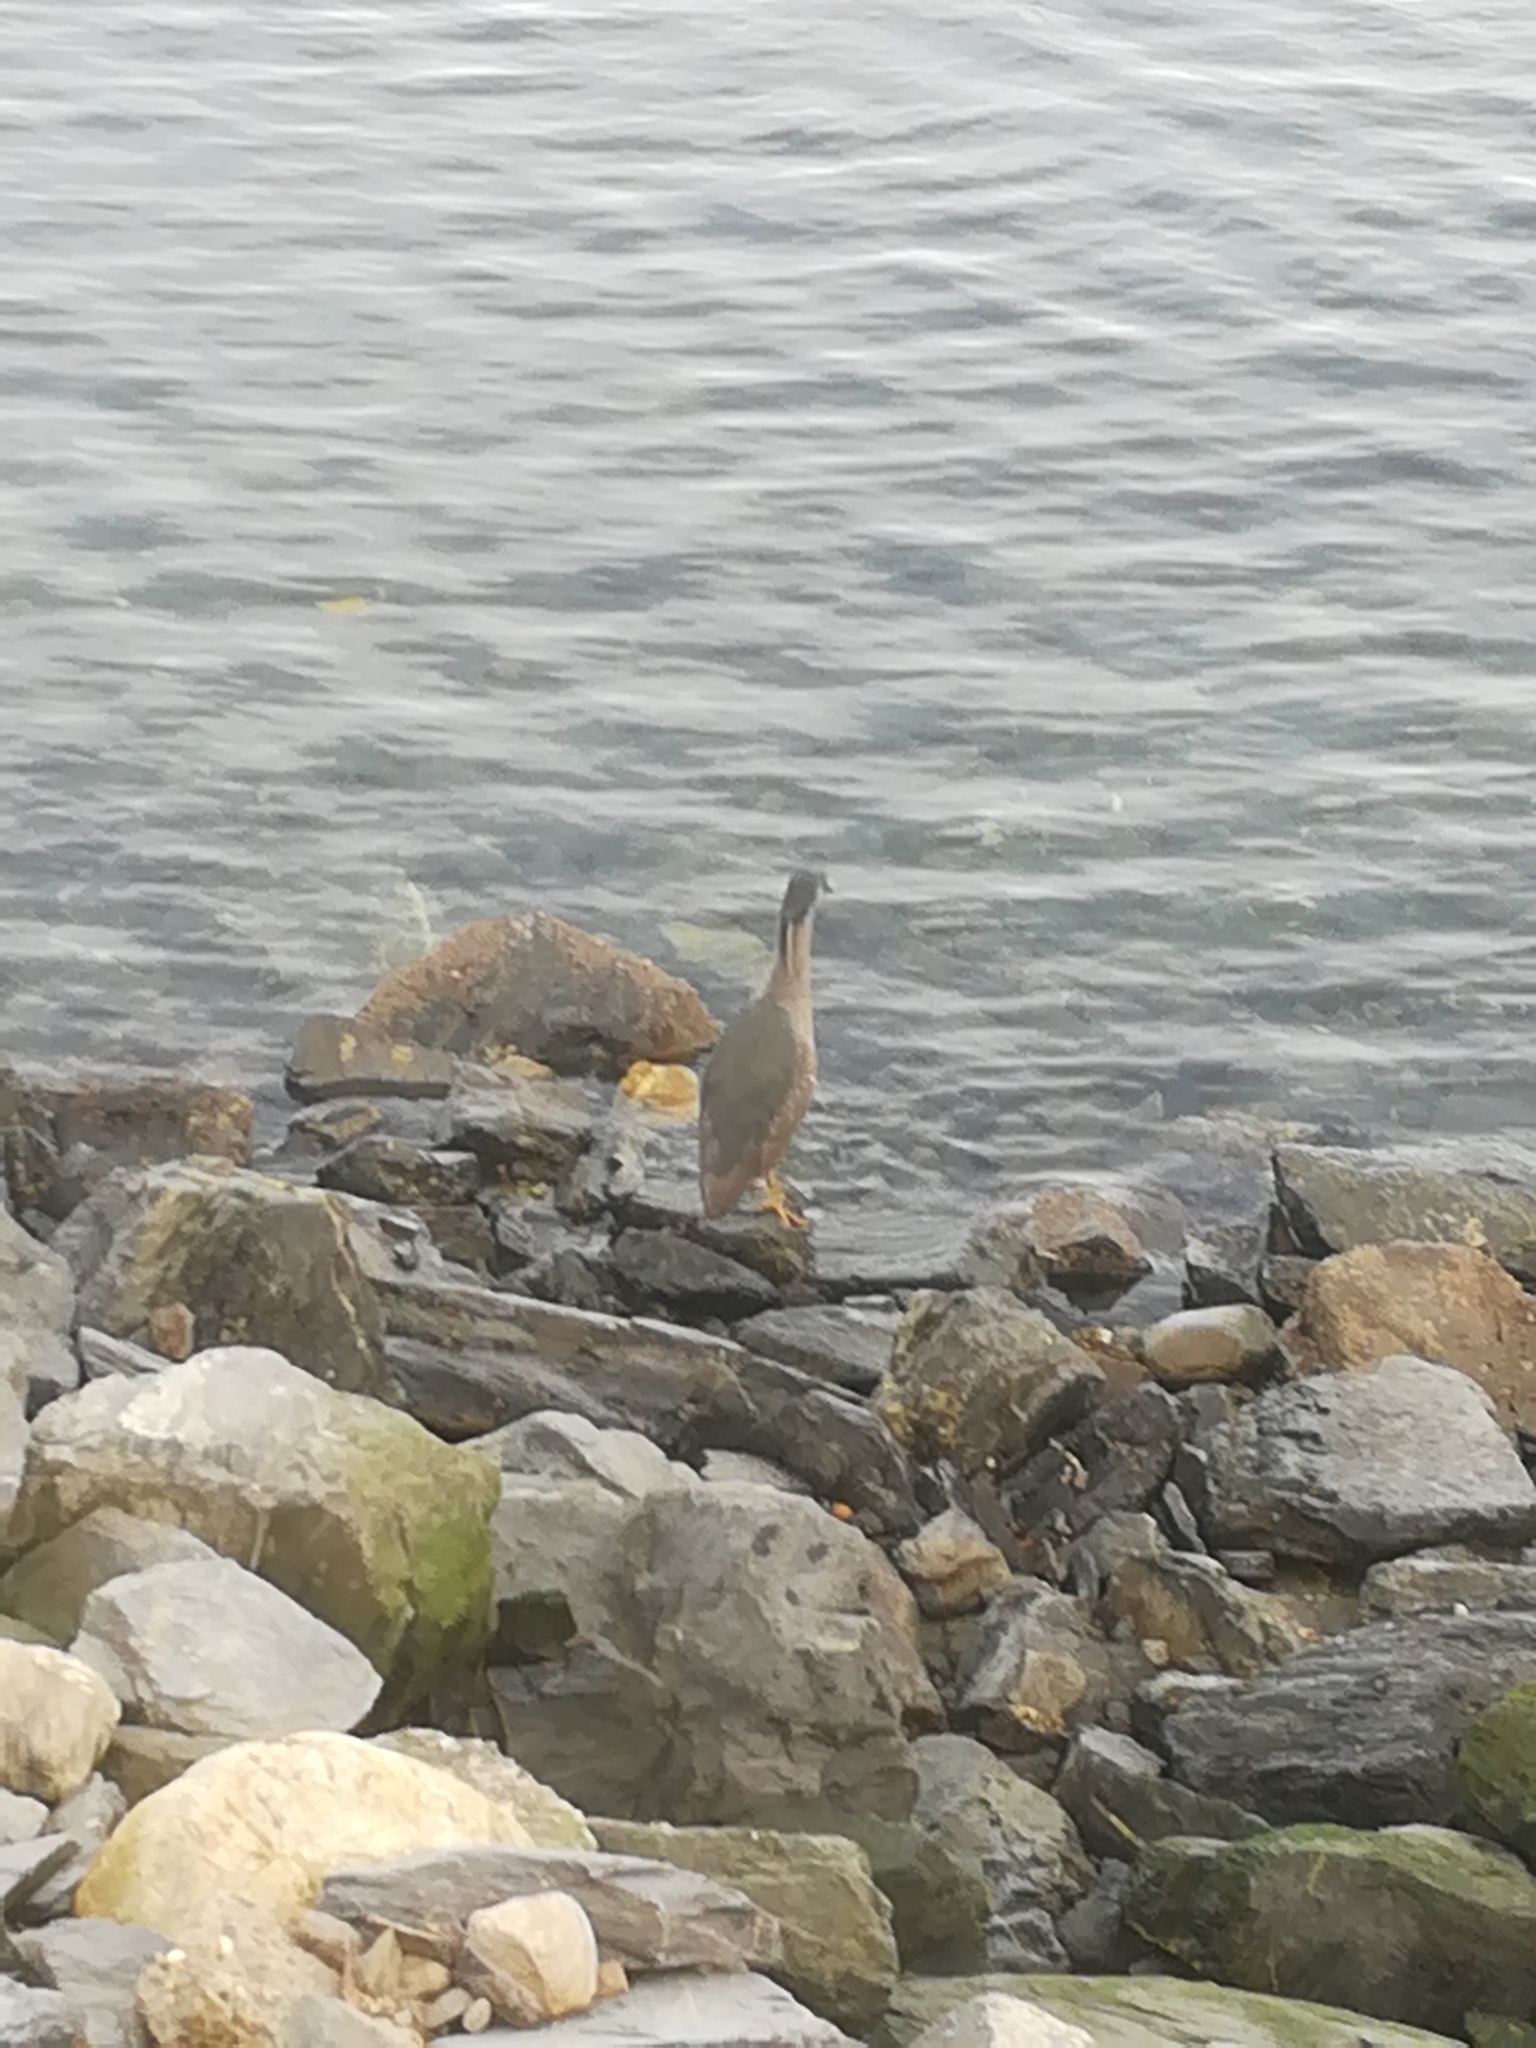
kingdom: Animalia
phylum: Chordata
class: Aves
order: Pelecaniformes
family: Ardeidae
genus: Nycticorax
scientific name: Nycticorax nycticorax
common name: Black-crowned night heron
